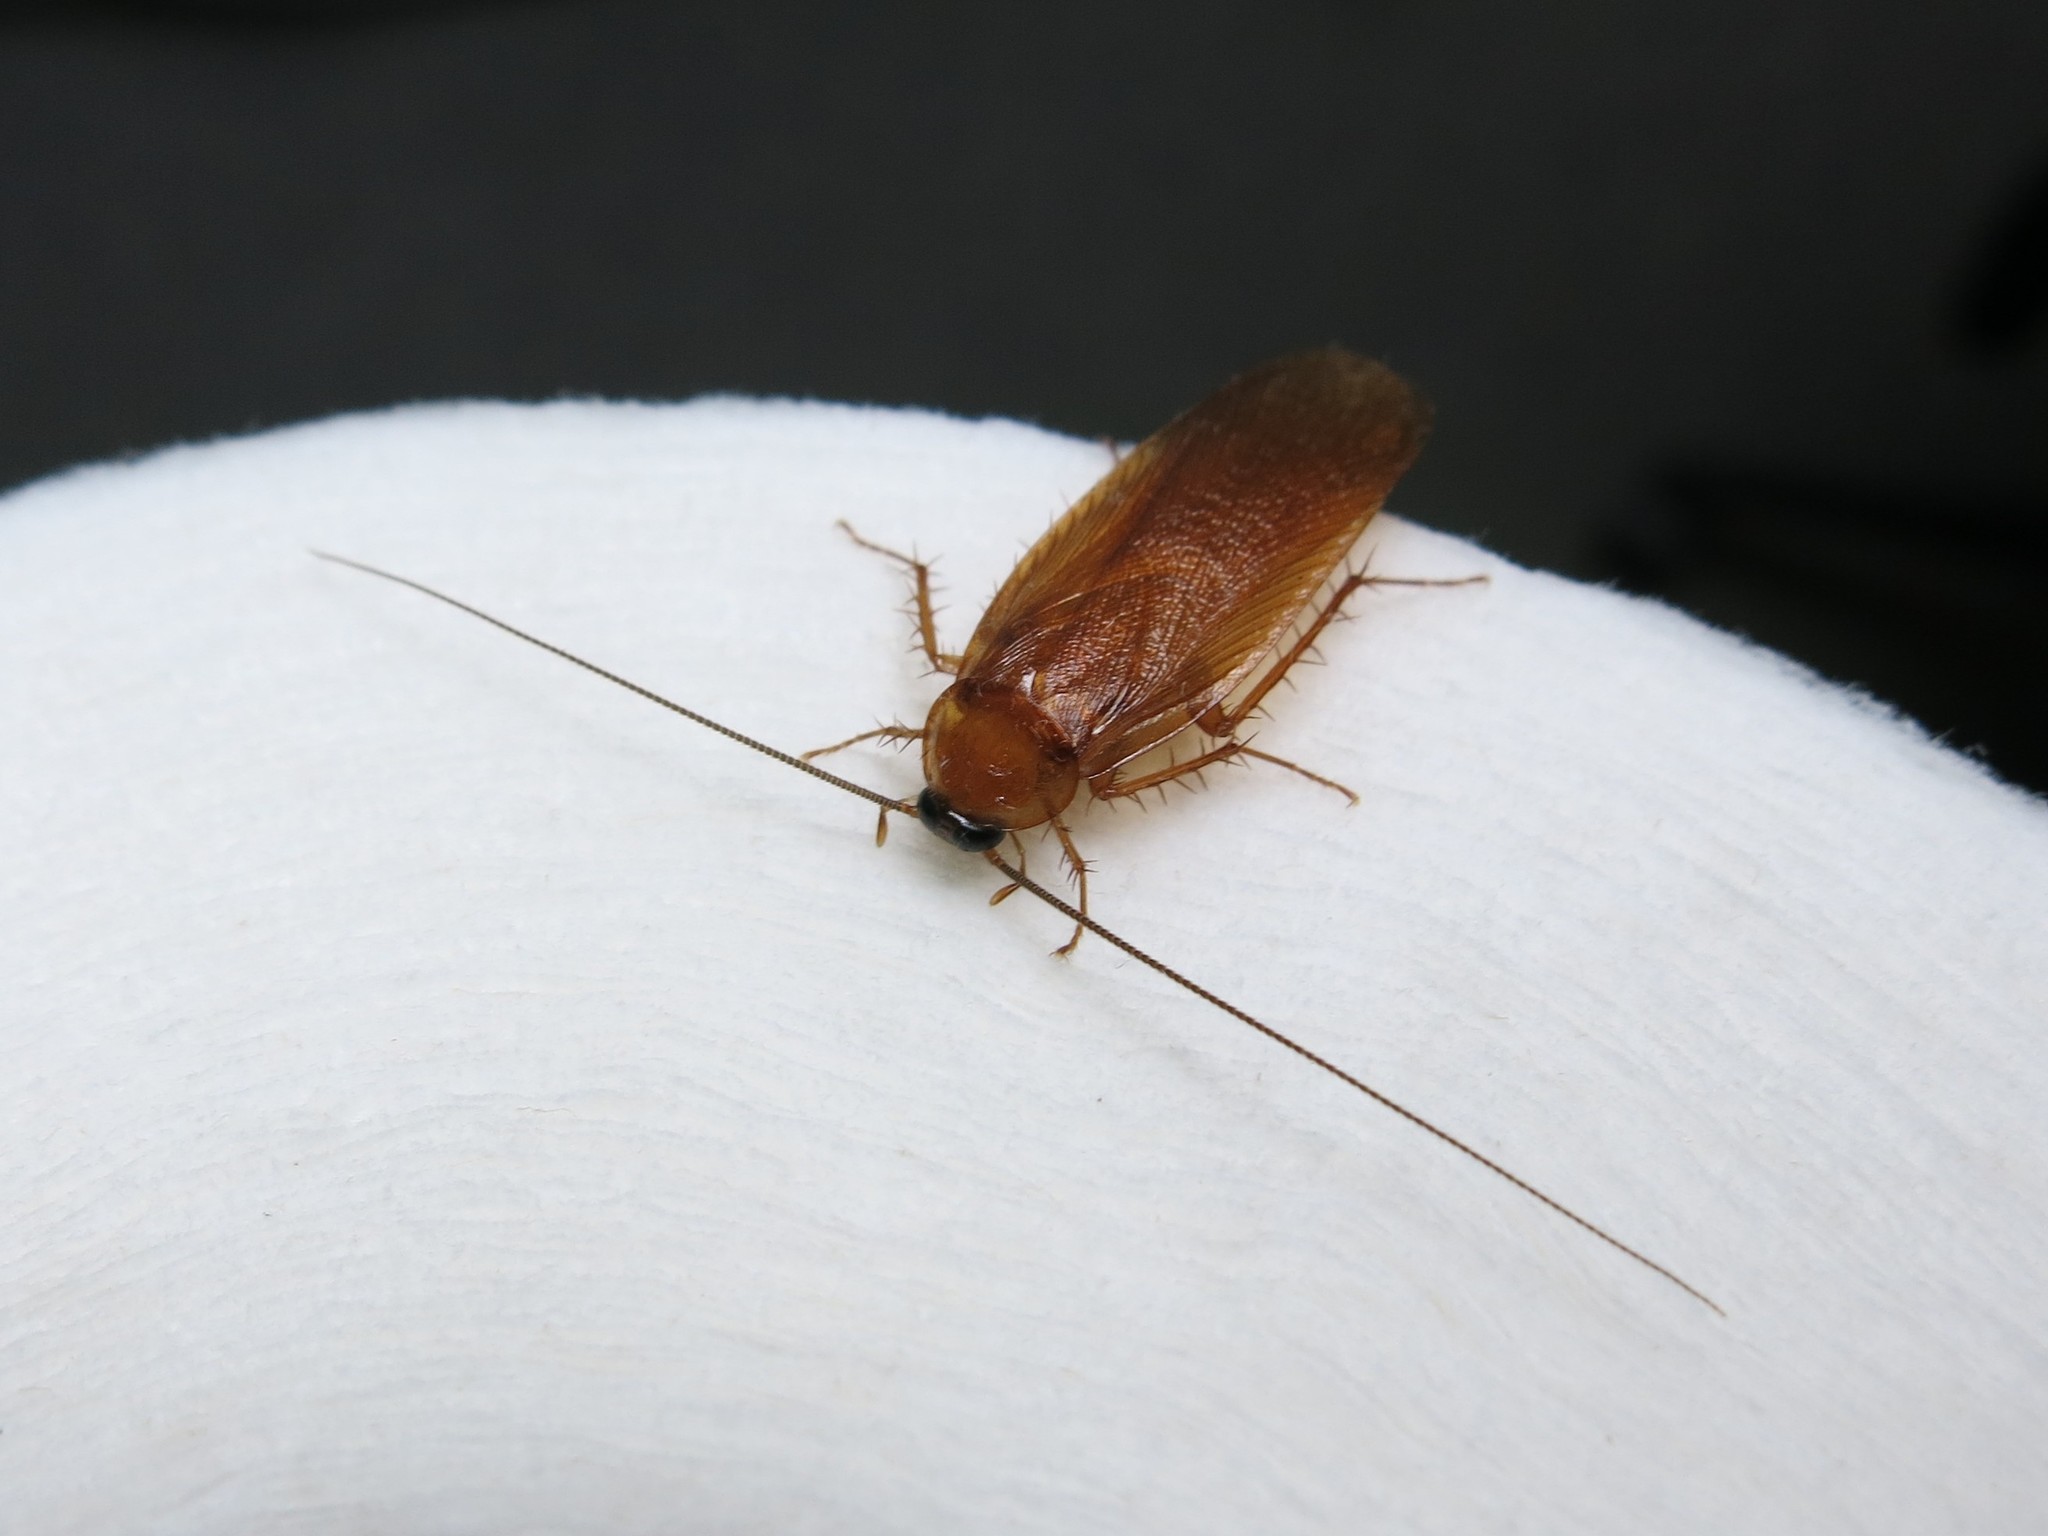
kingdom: Animalia
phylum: Arthropoda
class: Insecta
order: Blattodea
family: Ectobiidae
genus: Parcoblatta
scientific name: Parcoblatta virginica
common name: Virginia wood cockroach
